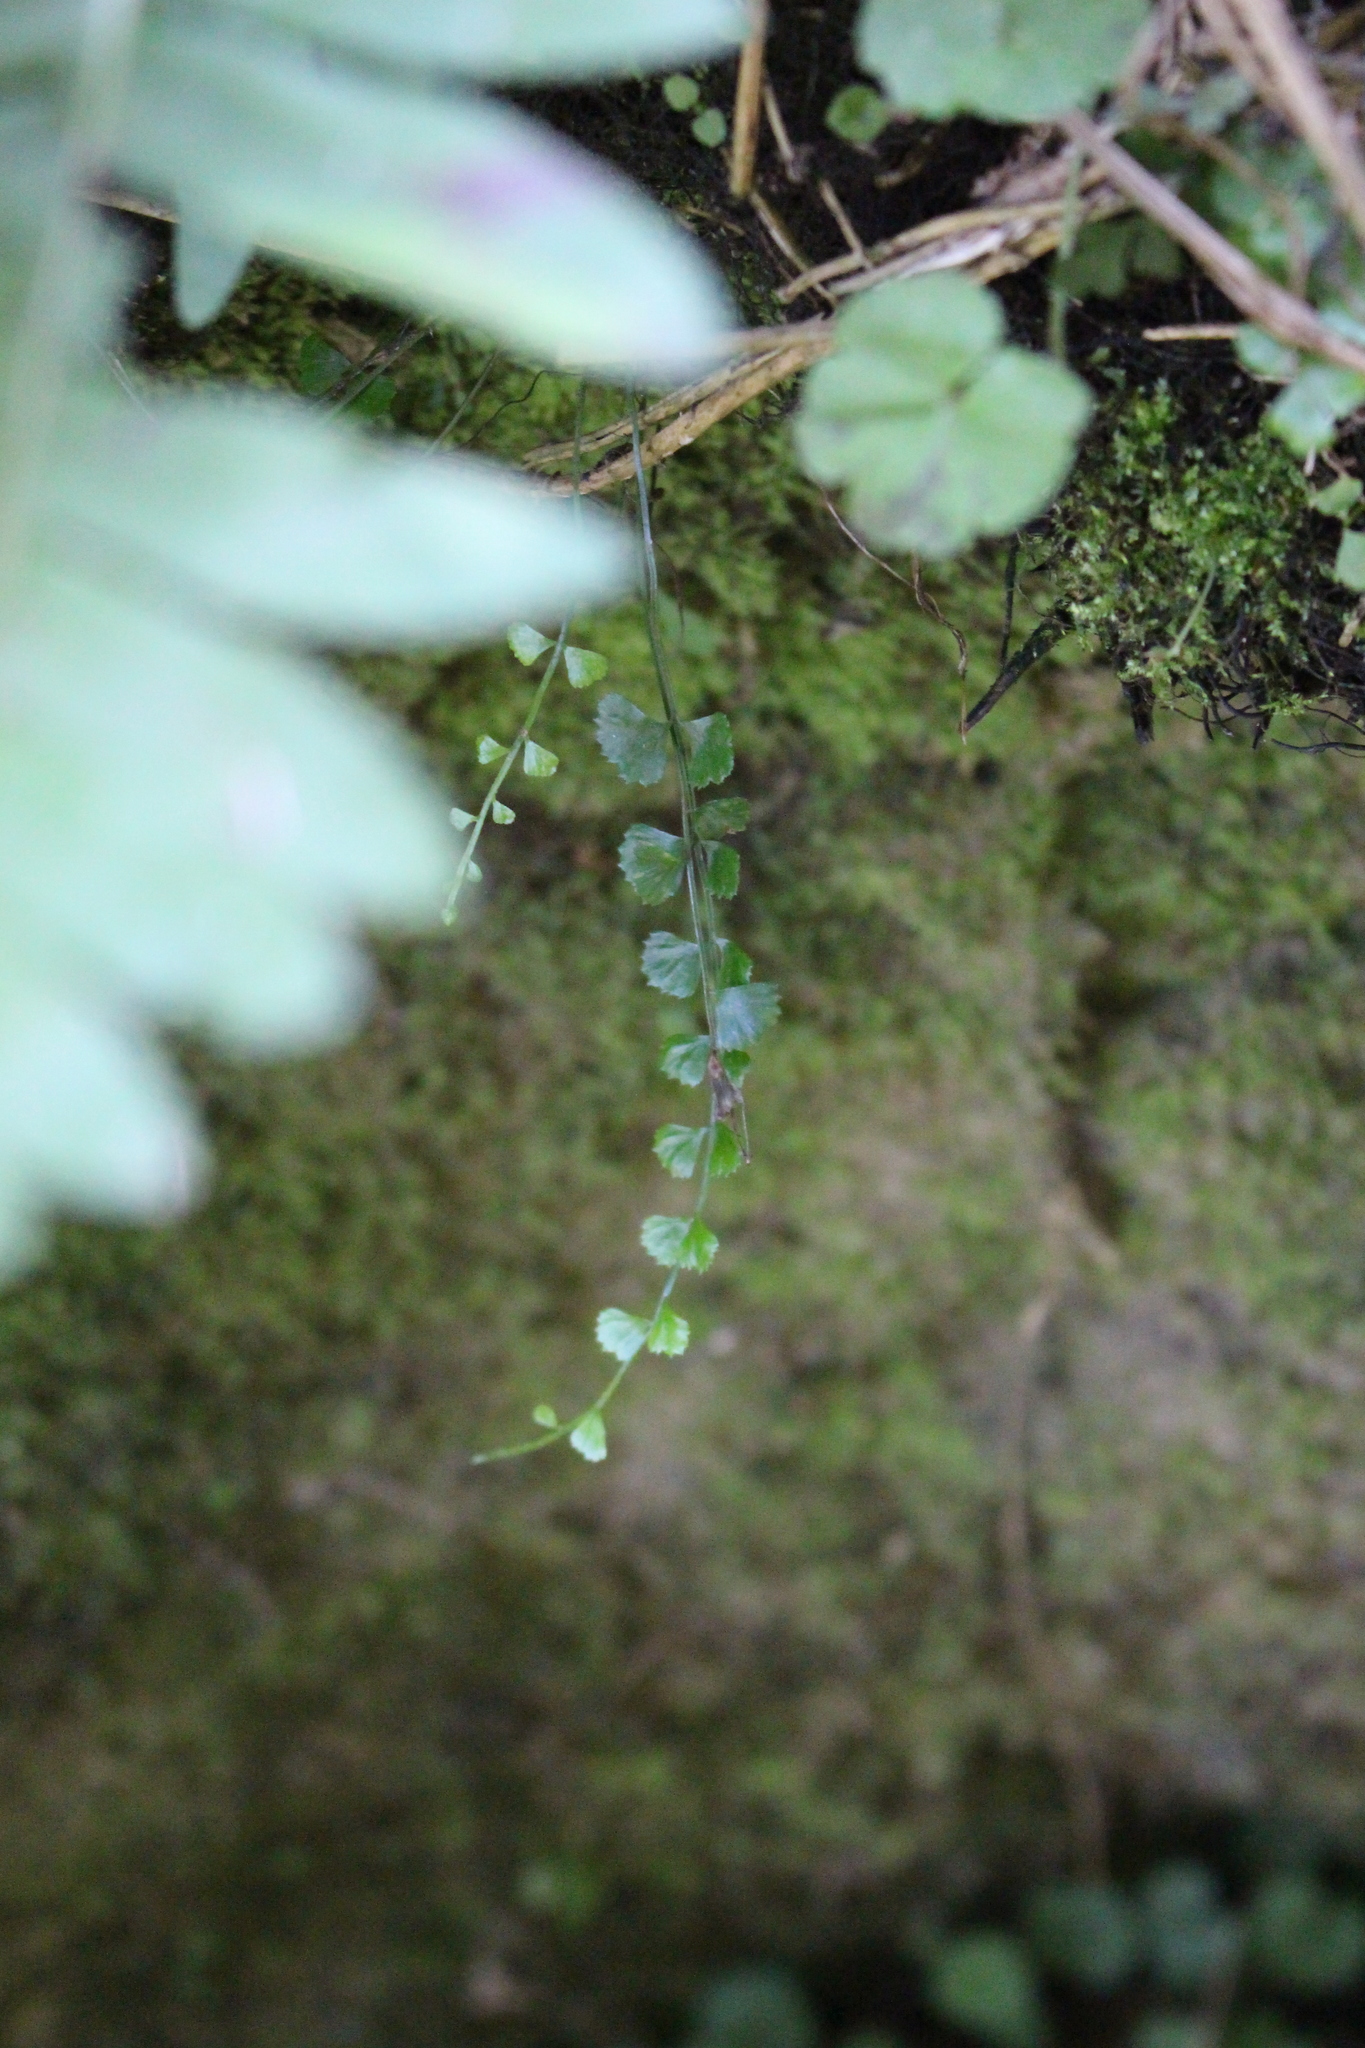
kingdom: Plantae
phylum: Tracheophyta
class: Polypodiopsida
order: Polypodiales
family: Aspleniaceae
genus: Asplenium
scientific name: Asplenium flabellifolium
